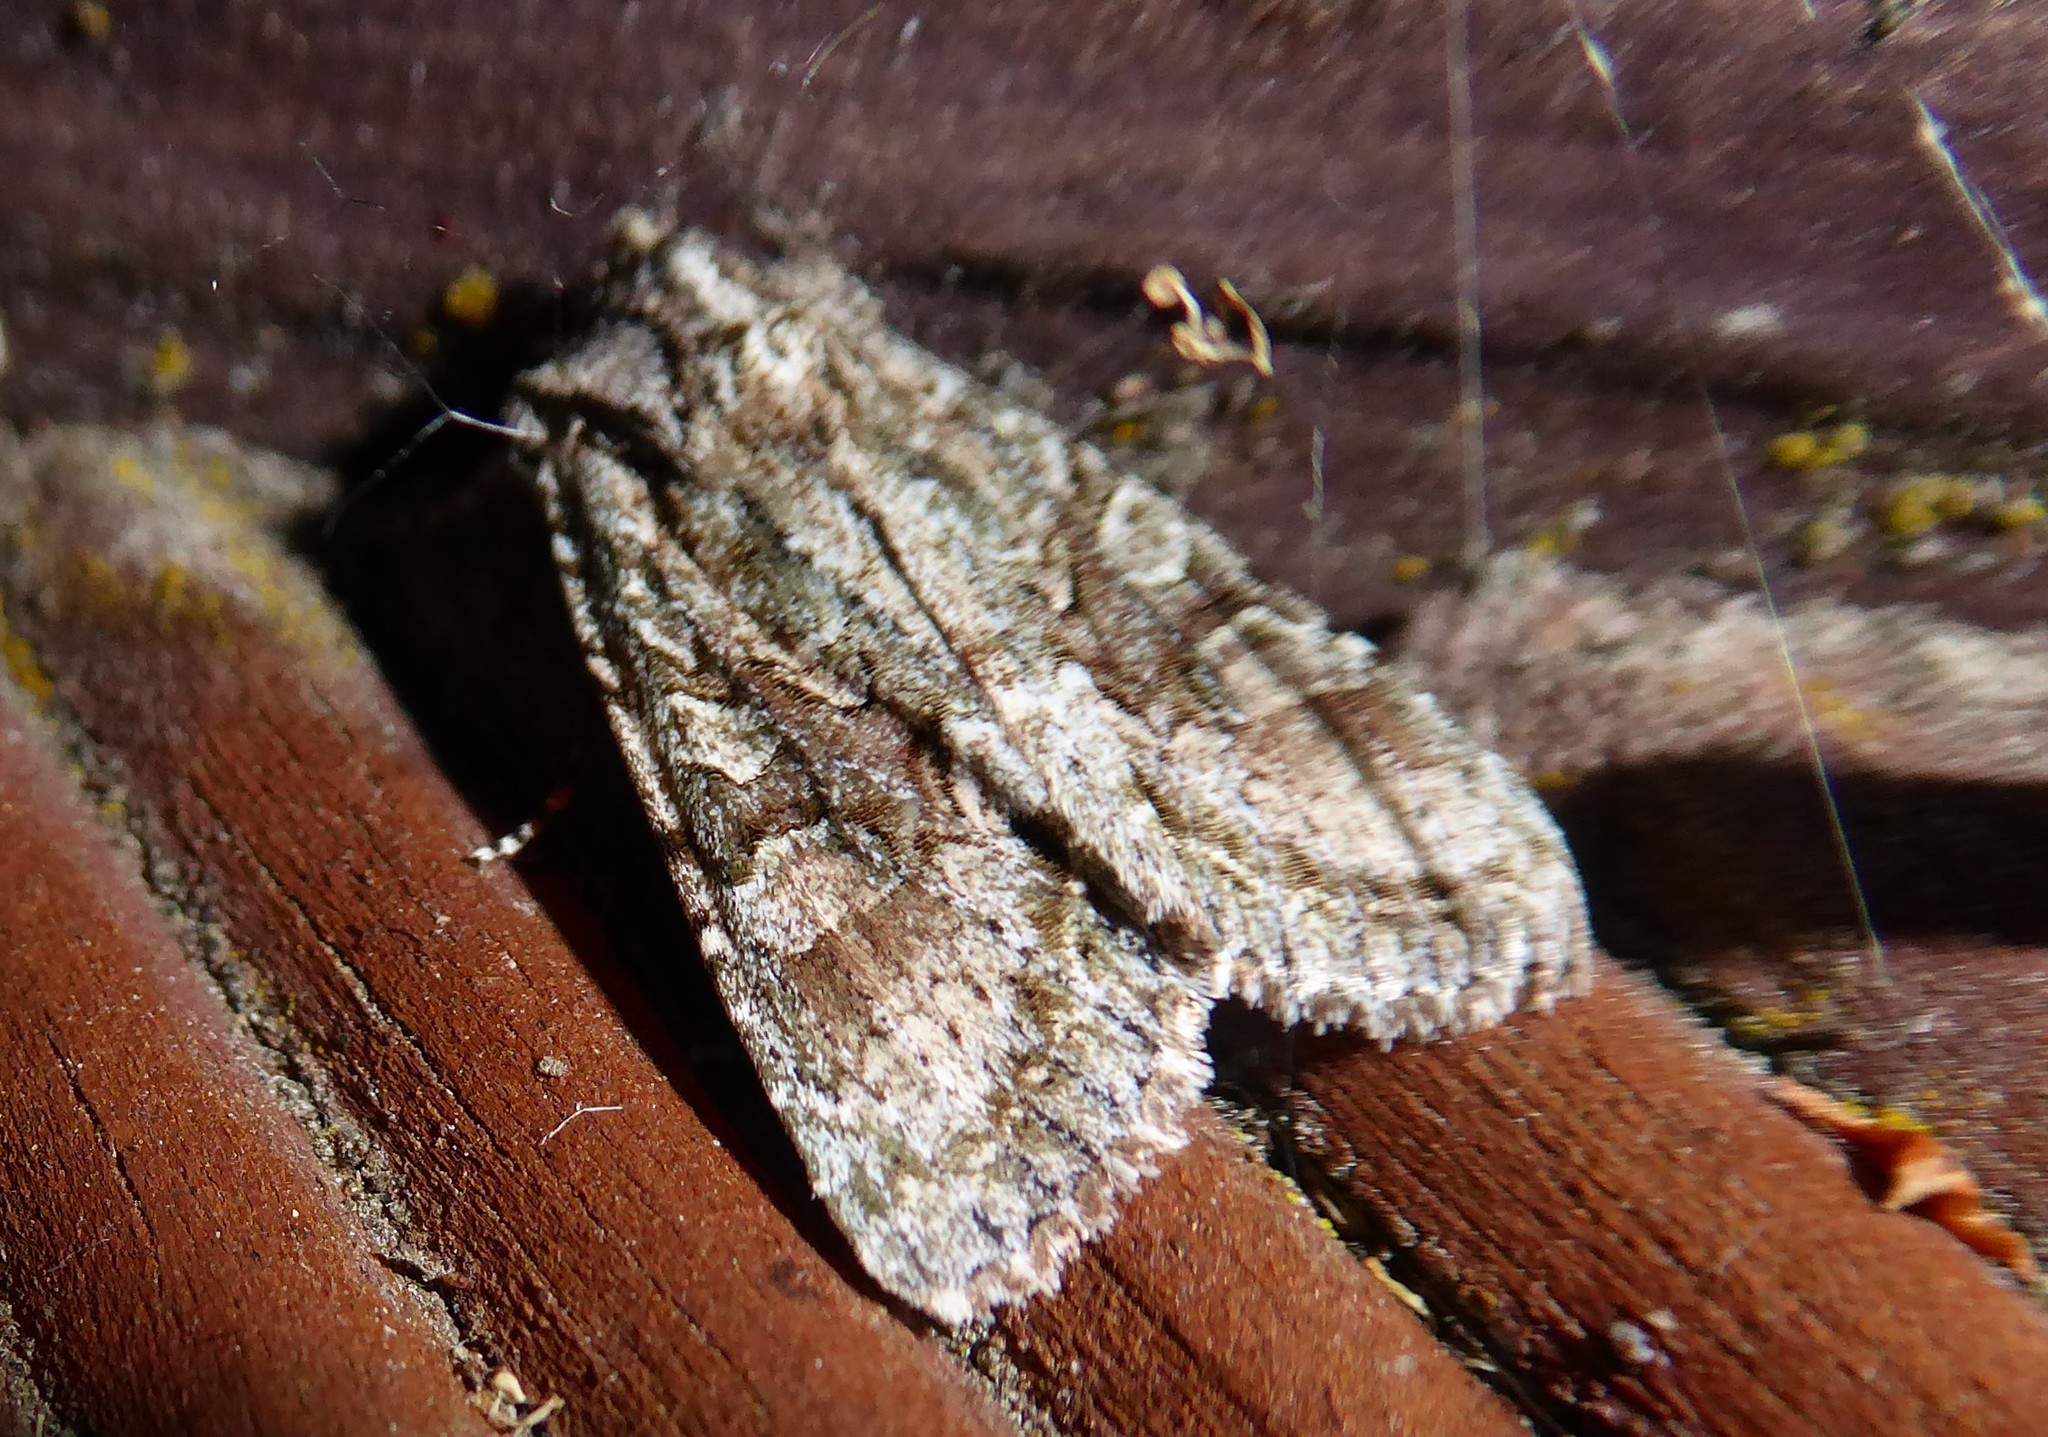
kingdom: Animalia
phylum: Arthropoda
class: Insecta
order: Lepidoptera
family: Noctuidae
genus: Ichneutica
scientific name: Ichneutica mutans
